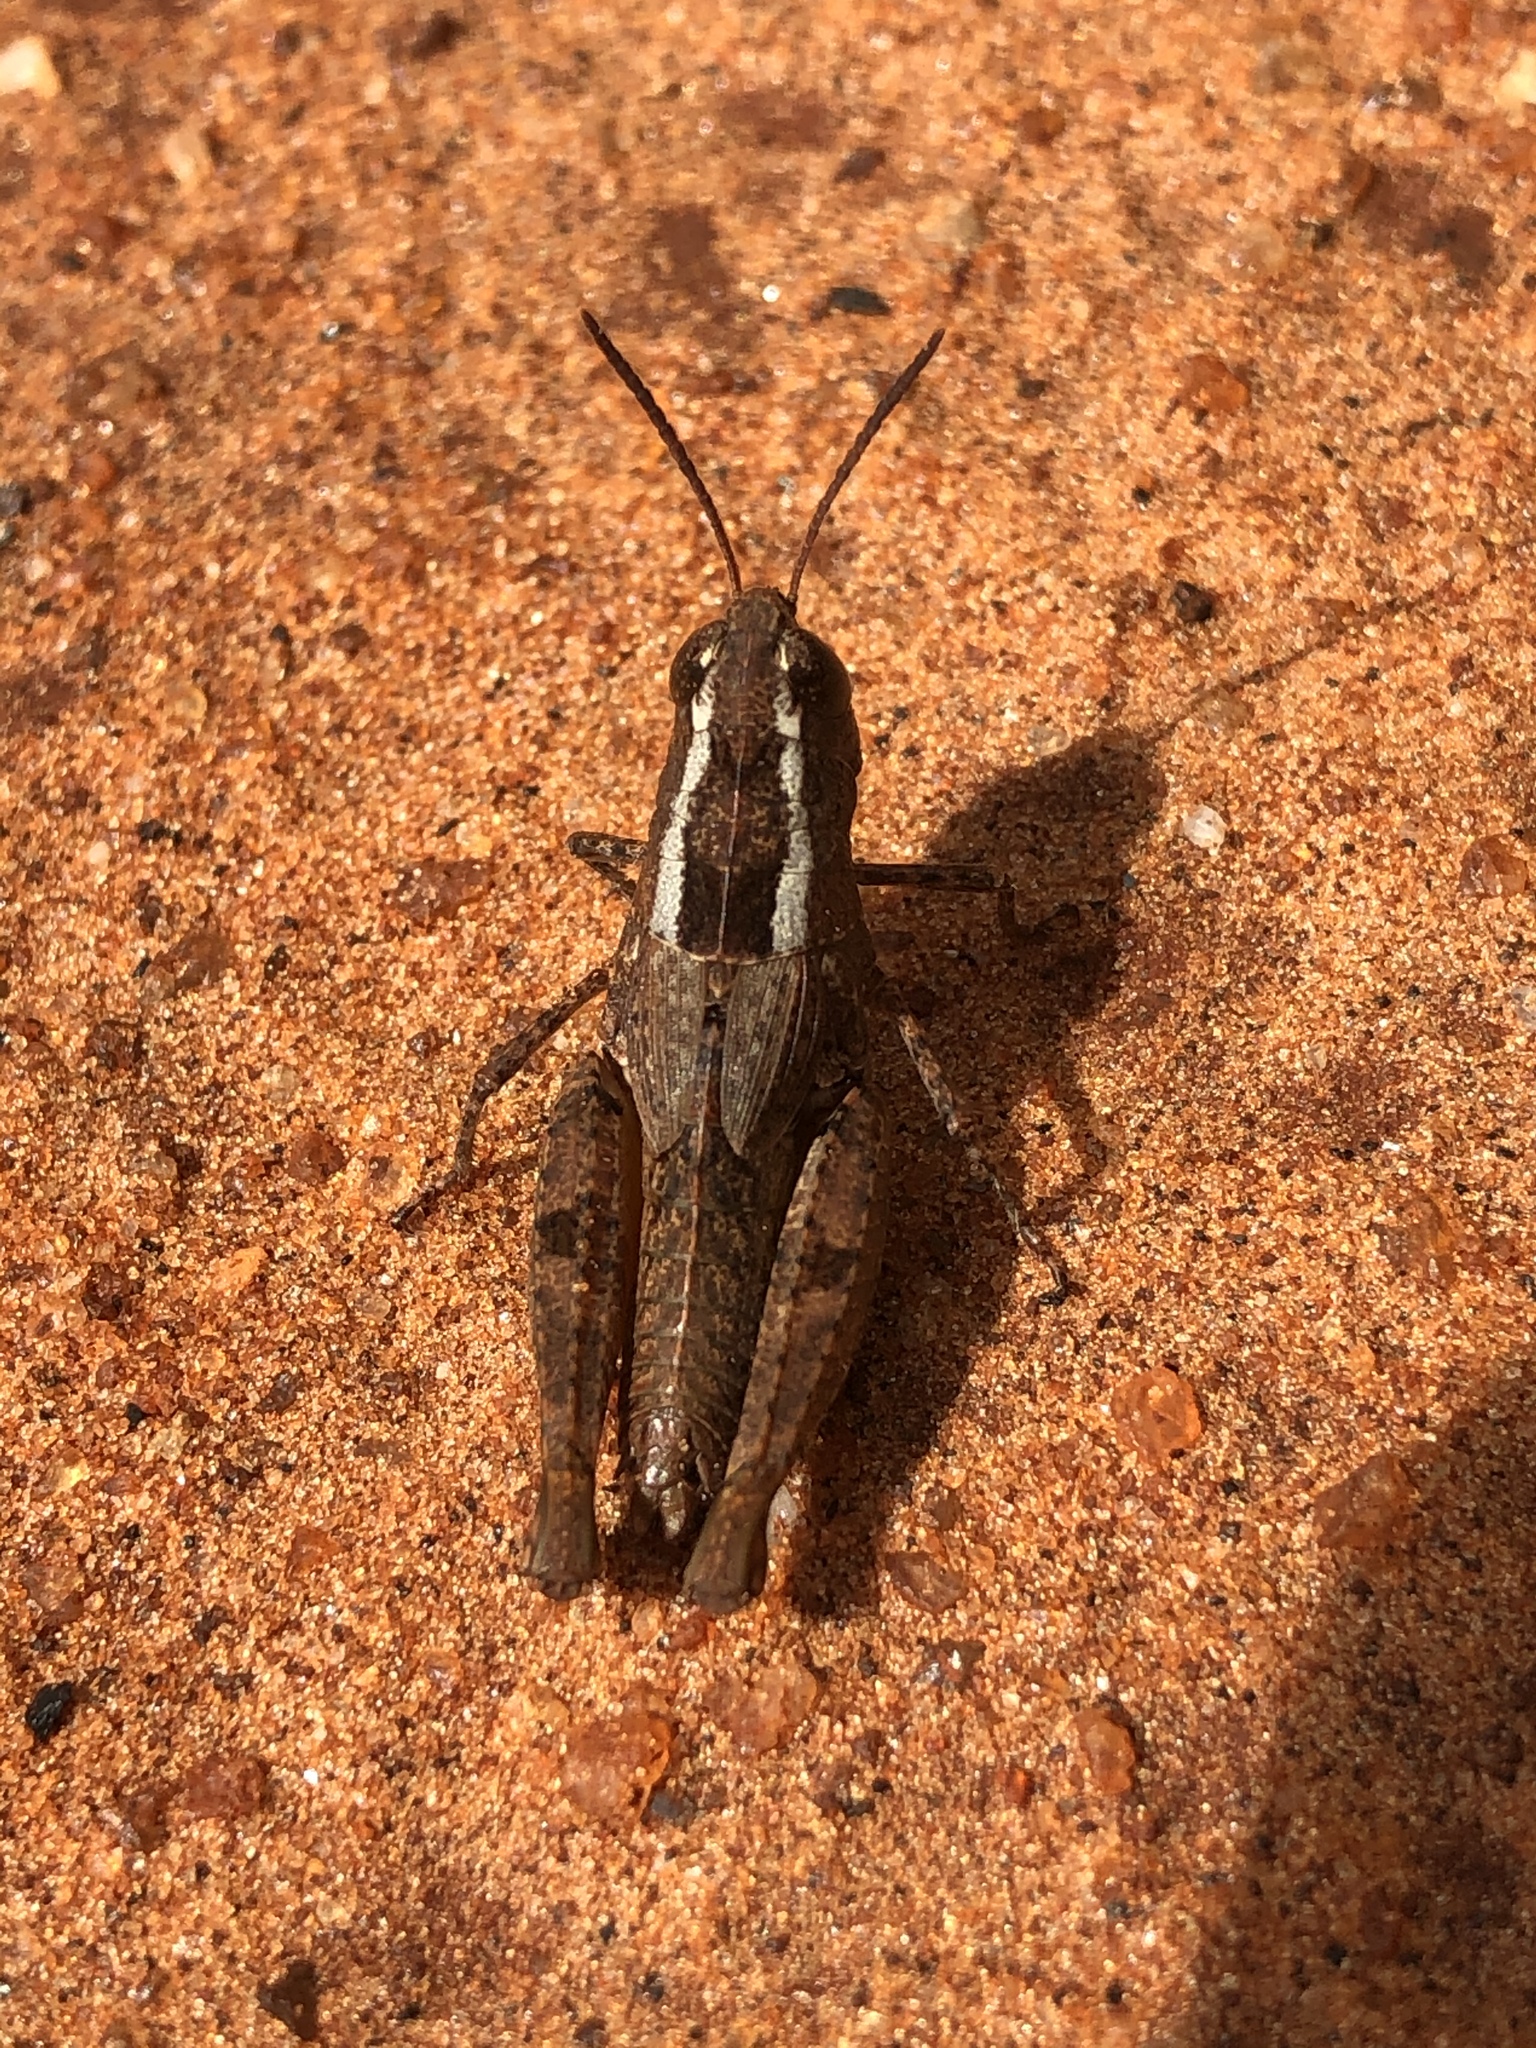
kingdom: Animalia
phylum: Arthropoda
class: Insecta
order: Orthoptera
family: Acrididae
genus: Taramassus
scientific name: Taramassus cunctator
